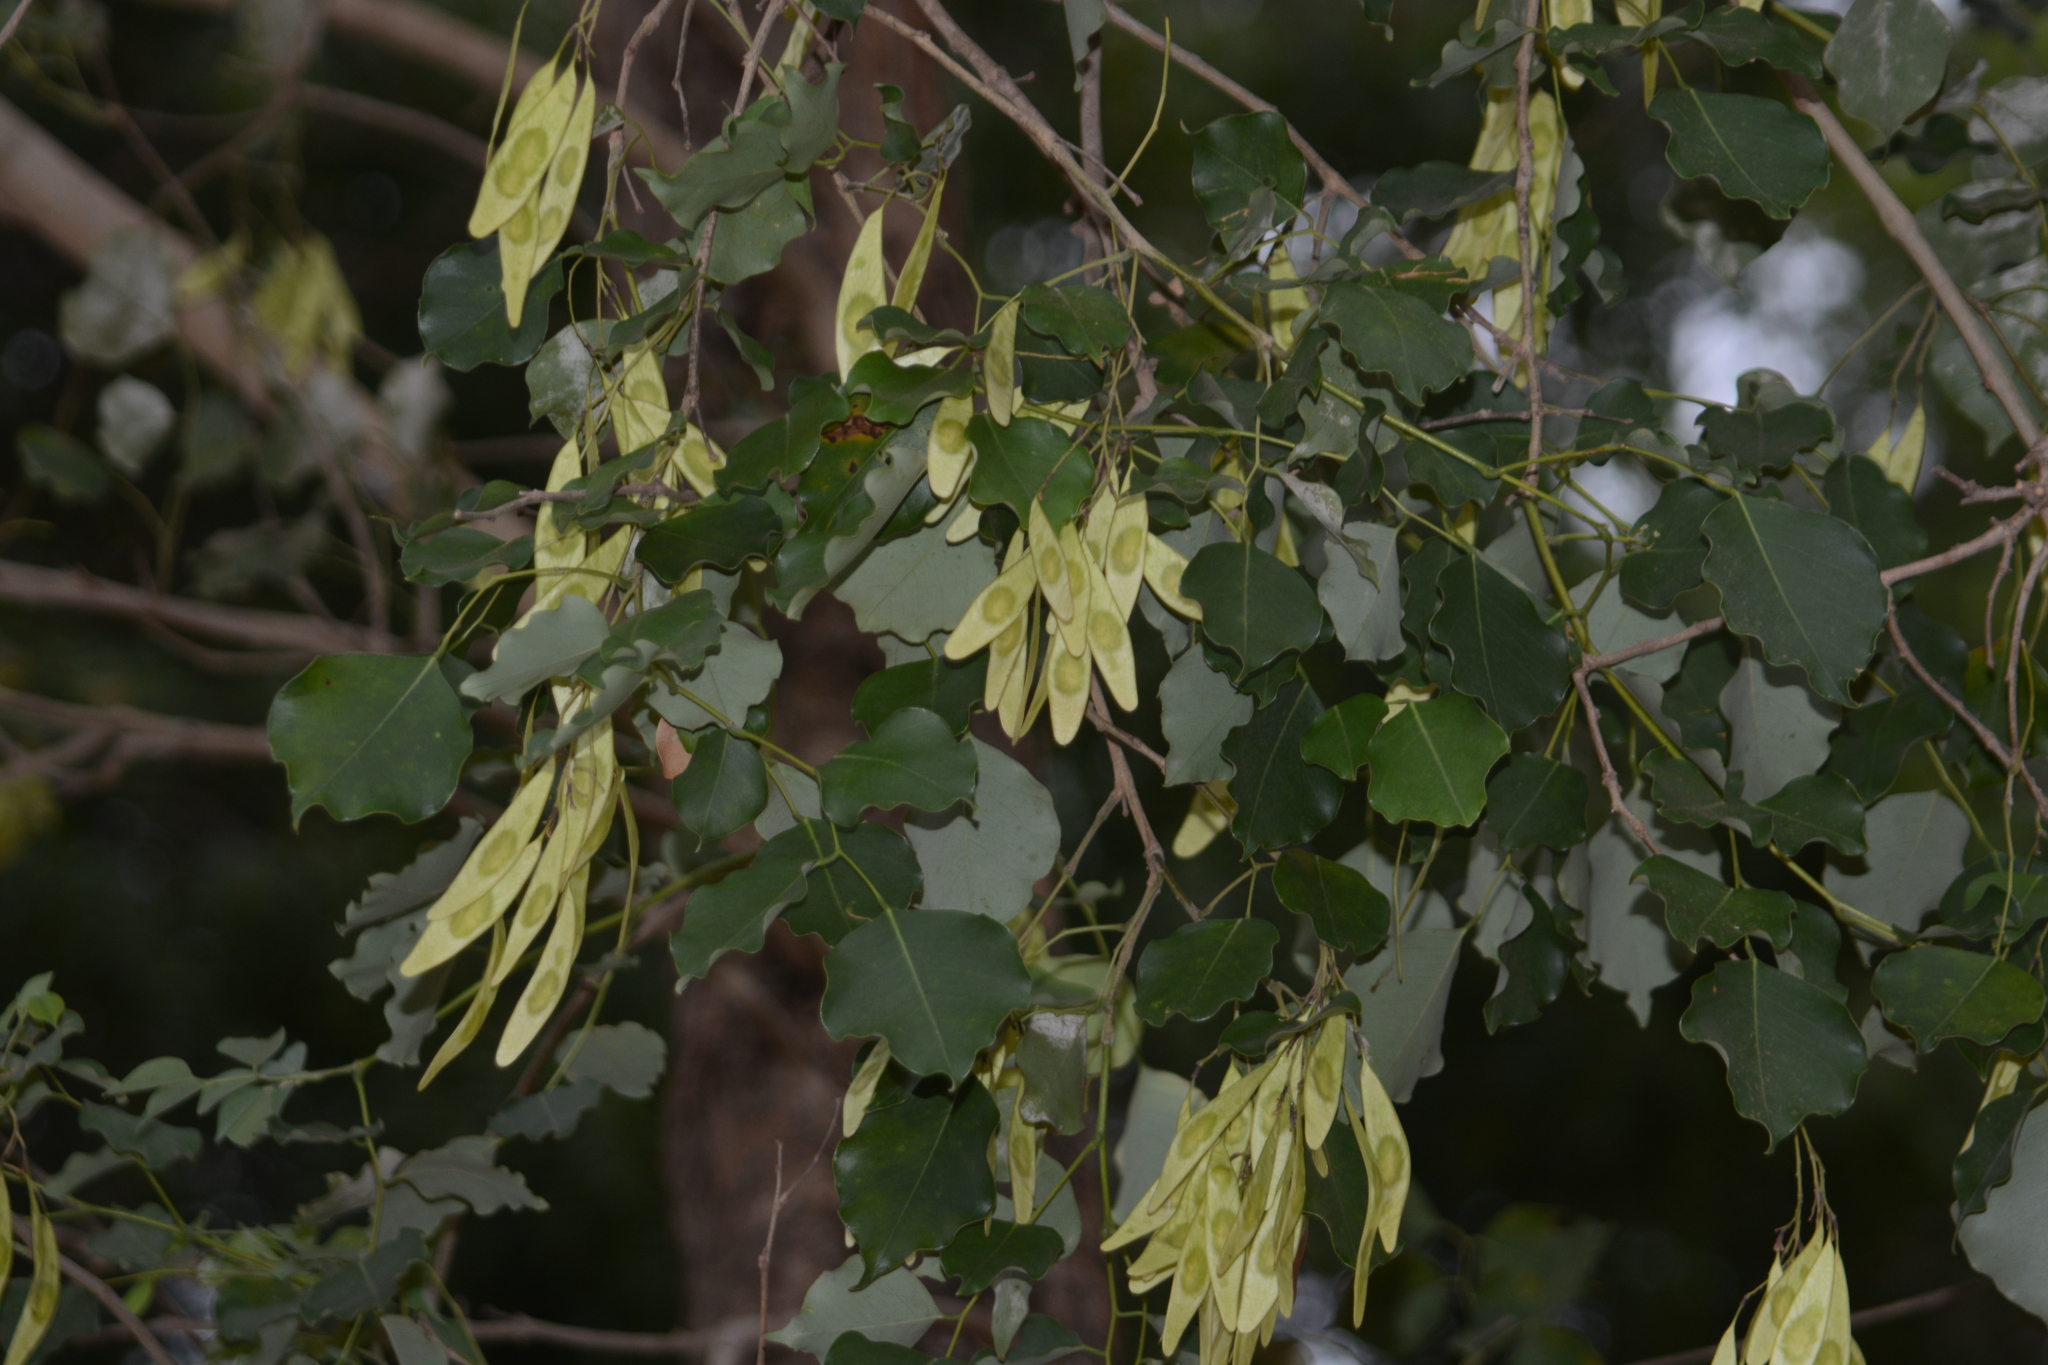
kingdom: Plantae
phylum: Tracheophyta
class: Magnoliopsida
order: Fabales
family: Fabaceae
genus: Dalbergia
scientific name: Dalbergia latifolia
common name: Bombay blackwood
